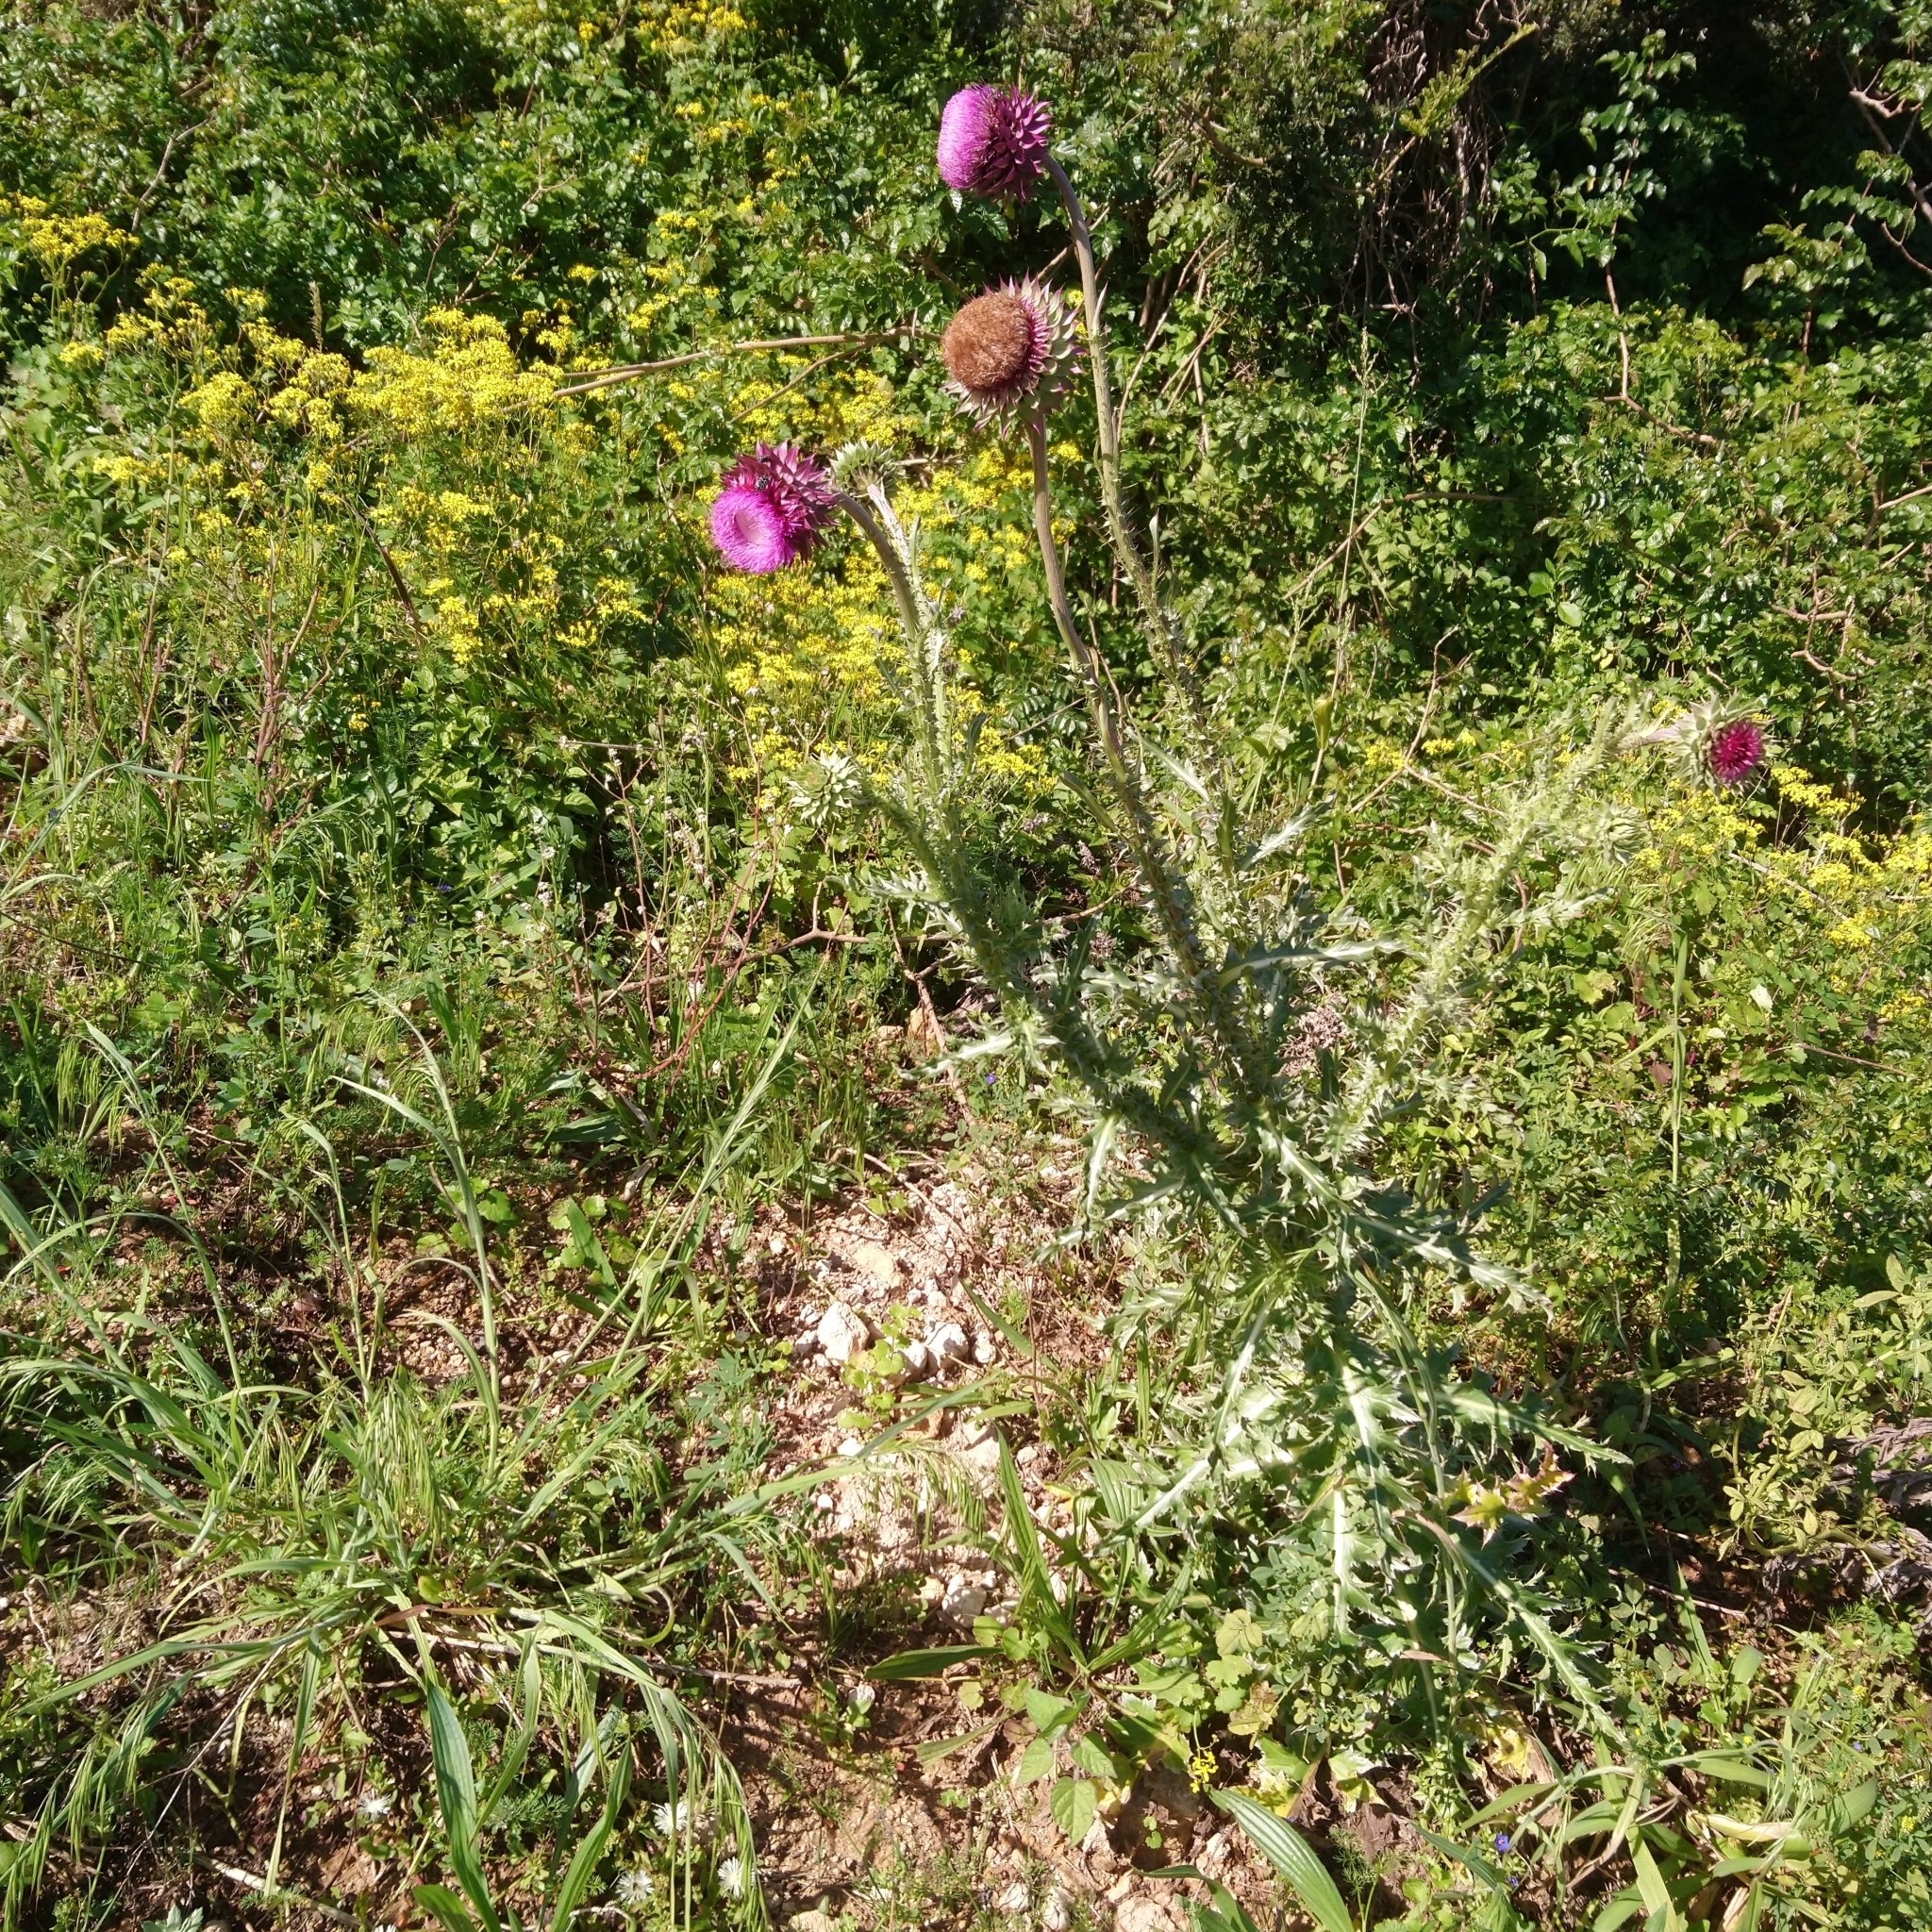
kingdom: Plantae
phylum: Tracheophyta
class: Magnoliopsida
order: Asterales
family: Asteraceae
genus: Carduus
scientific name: Carduus nutans
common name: Musk thistle
